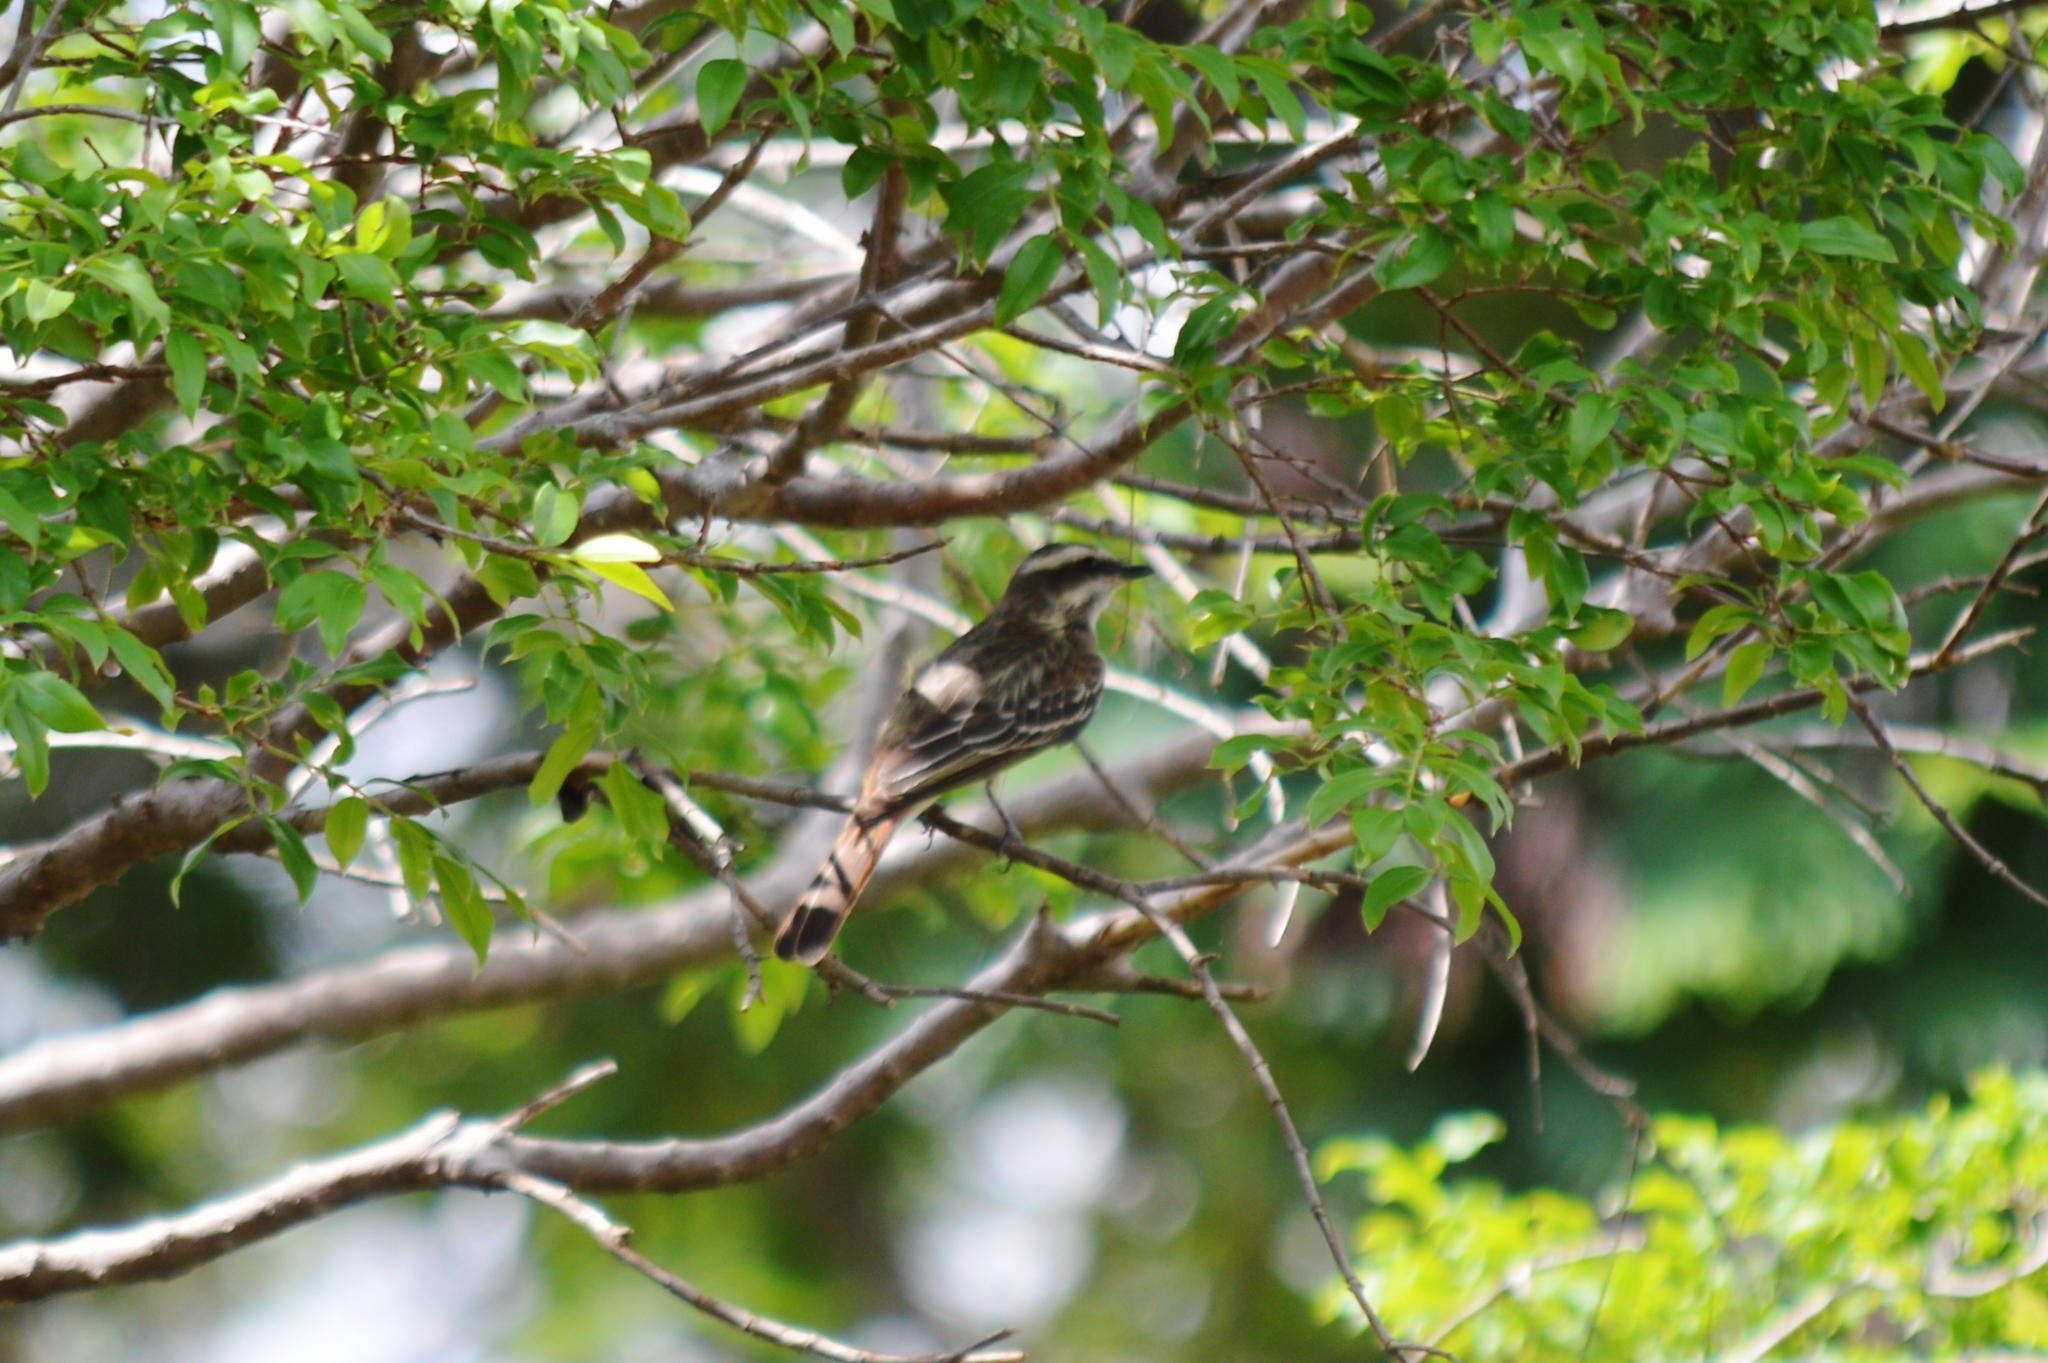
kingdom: Animalia
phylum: Chordata
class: Aves
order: Passeriformes
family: Tyrannidae
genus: Myiodynastes
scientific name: Myiodynastes maculatus
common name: Streaked flycatcher
